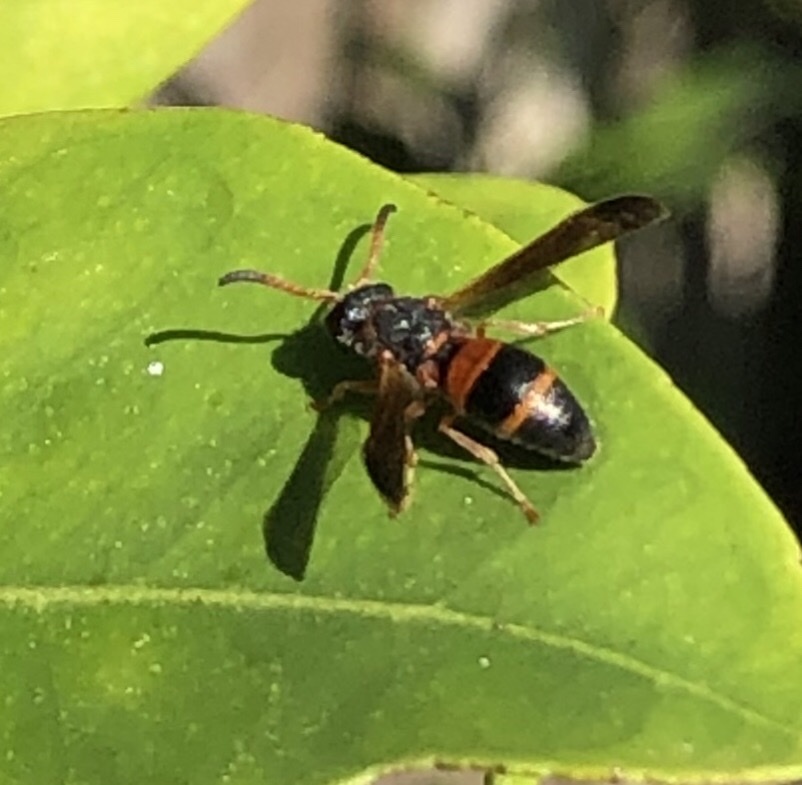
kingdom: Animalia
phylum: Arthropoda
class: Insecta
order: Hymenoptera
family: Eumenidae
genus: Pachodynerus
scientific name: Pachodynerus erynnis
